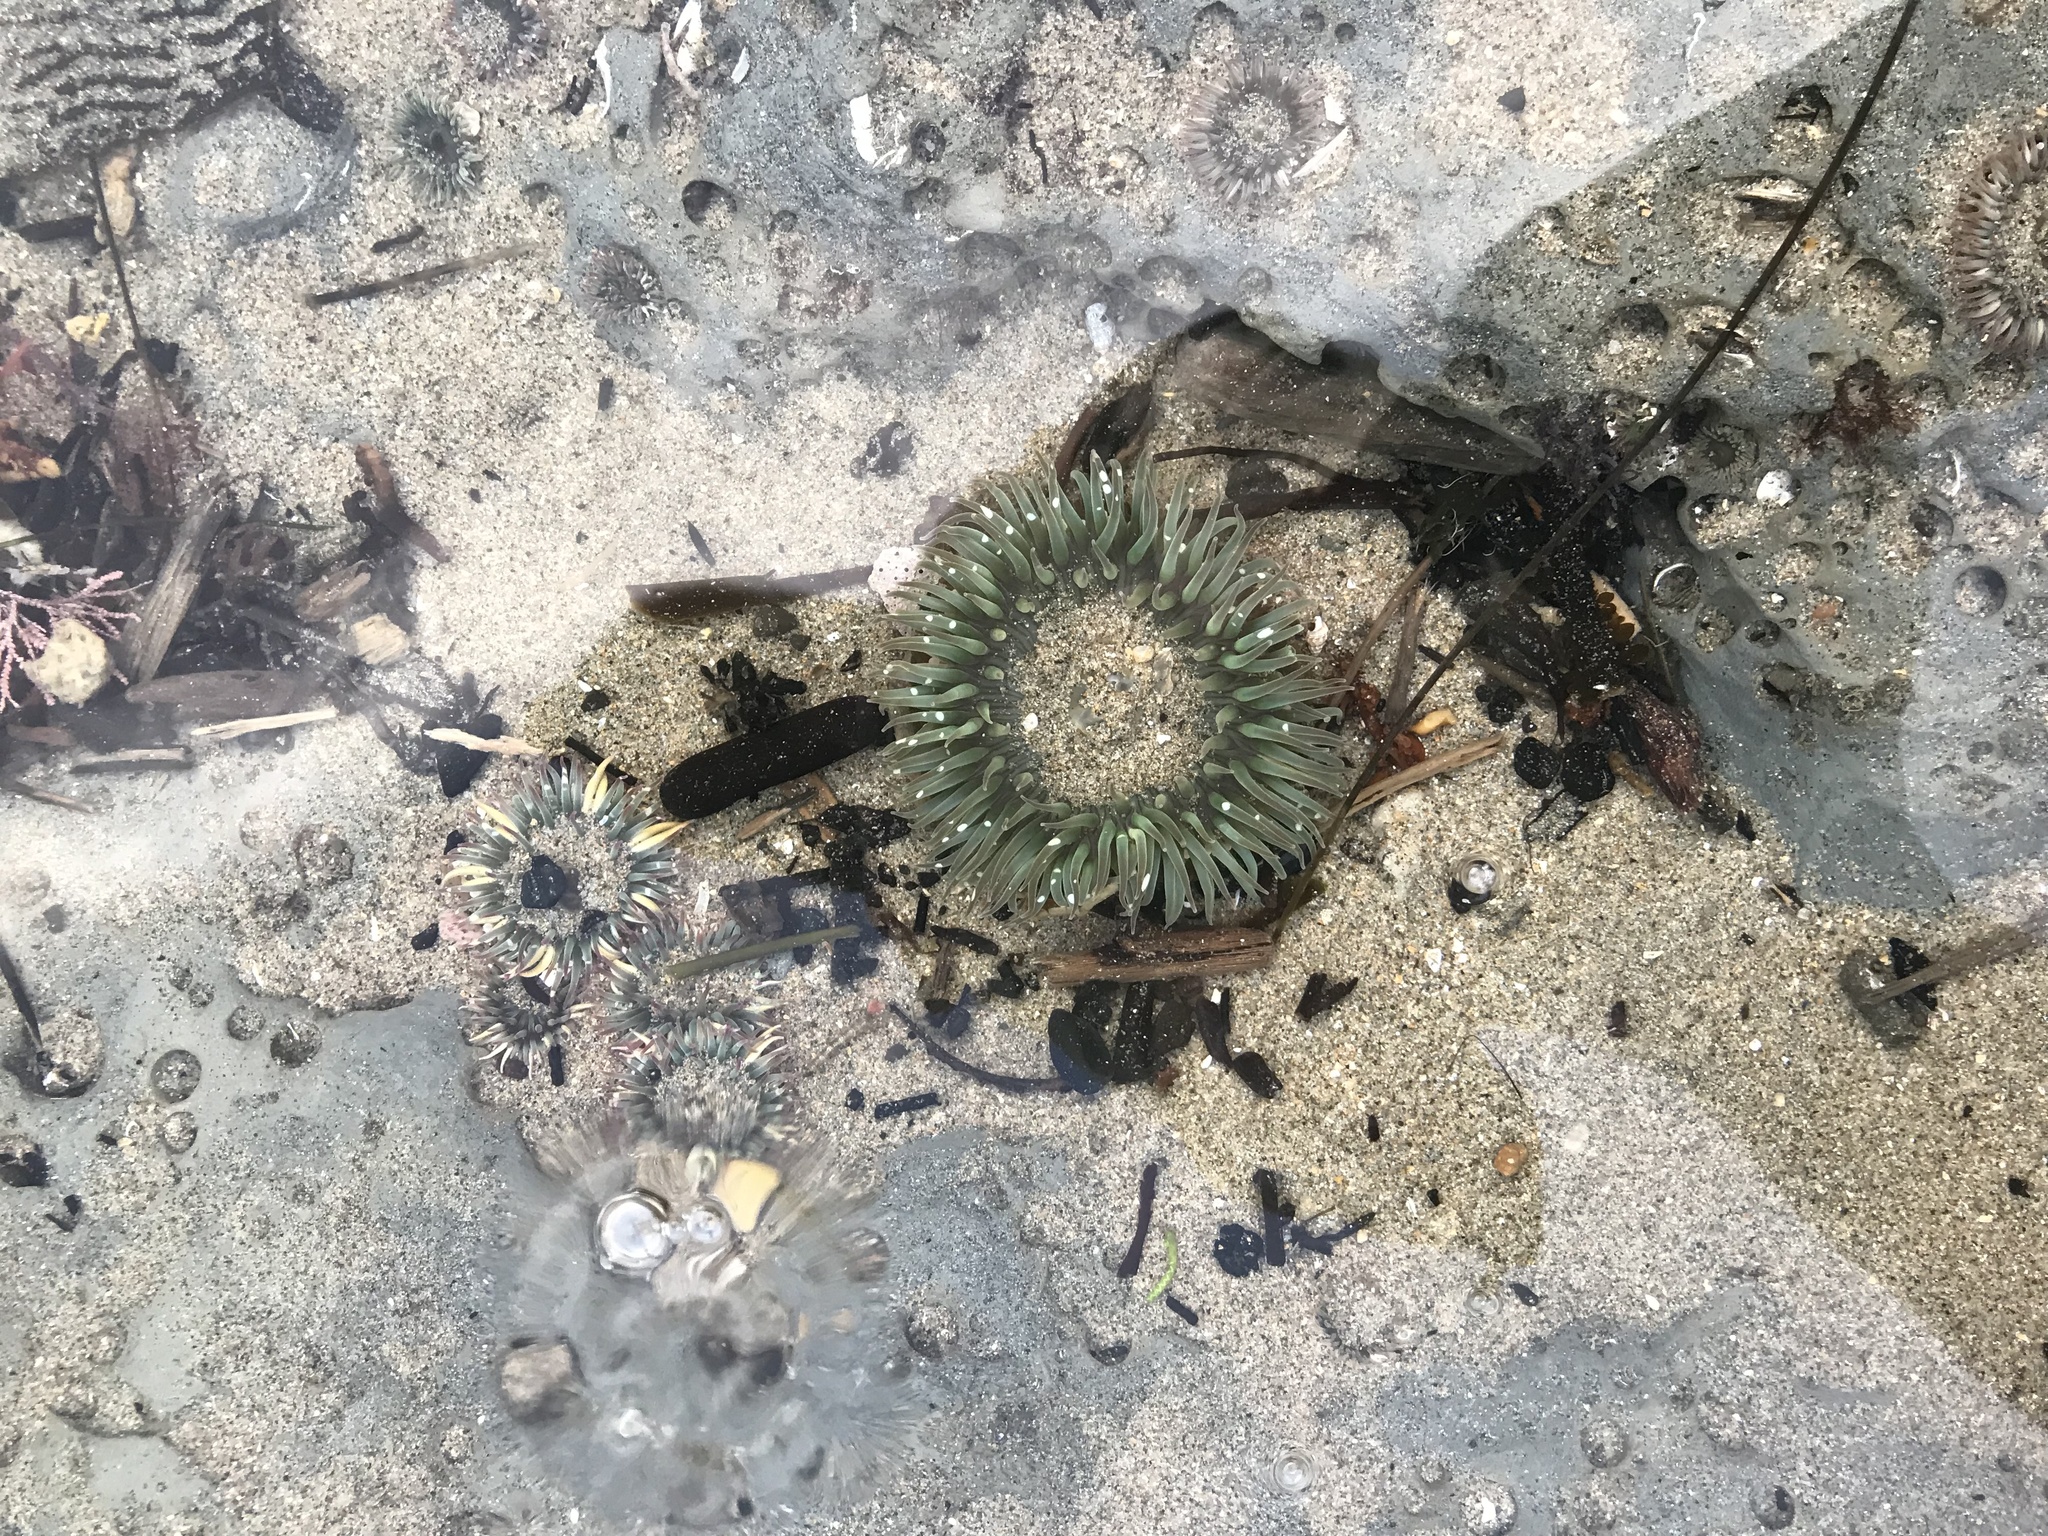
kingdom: Animalia
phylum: Cnidaria
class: Anthozoa
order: Actiniaria
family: Actiniidae
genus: Anthopleura
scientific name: Anthopleura sola
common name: Sun anemone
